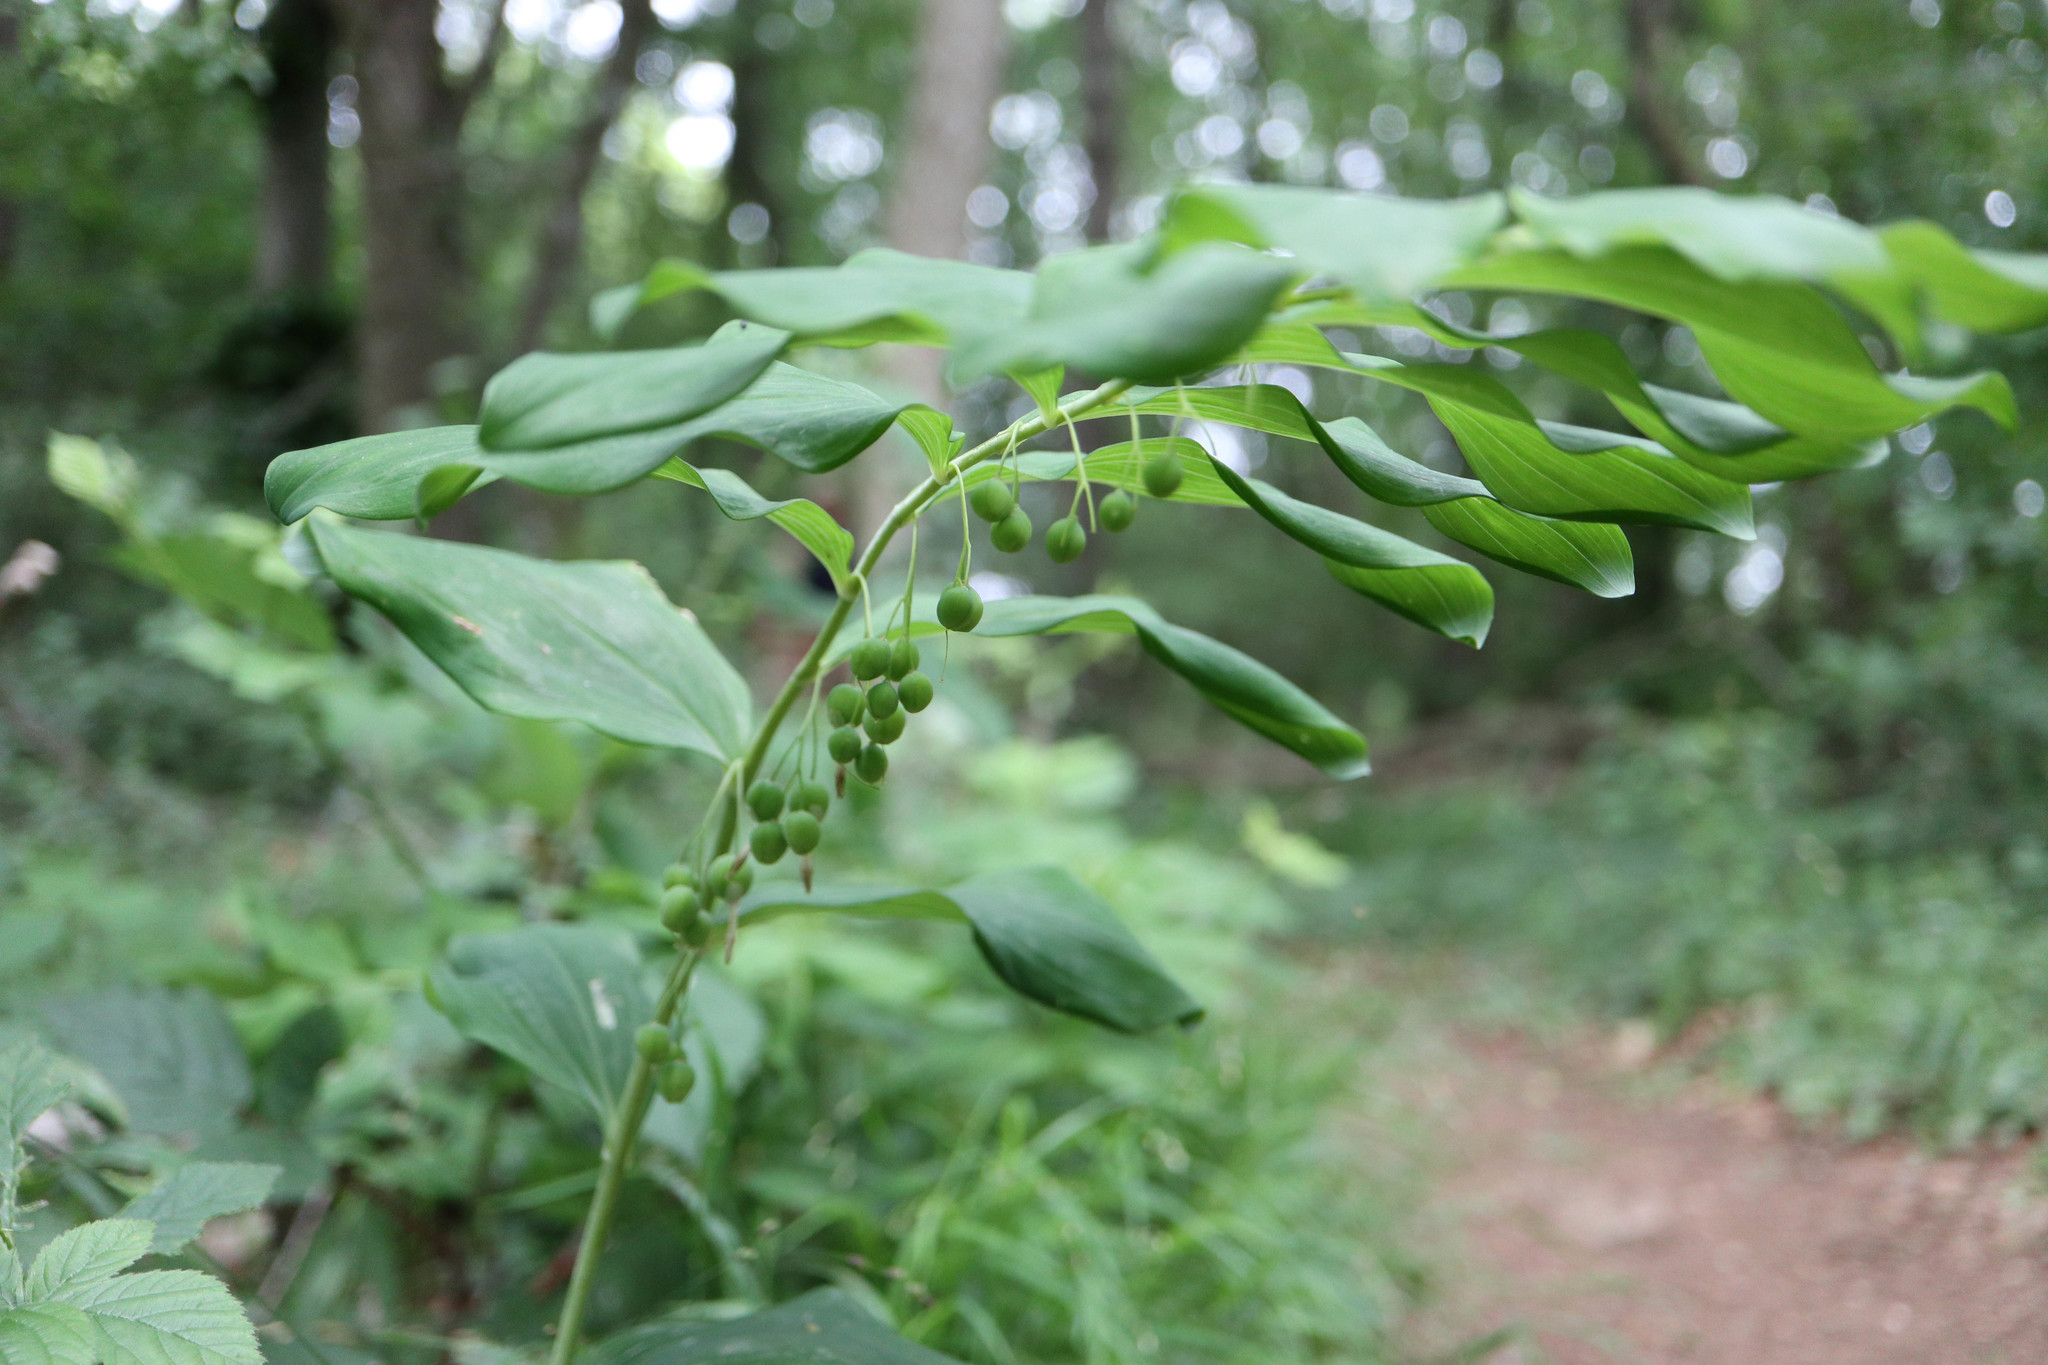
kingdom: Plantae
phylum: Tracheophyta
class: Liliopsida
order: Asparagales
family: Asparagaceae
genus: Polygonatum
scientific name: Polygonatum multiflorum
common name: Solomon's-seal
